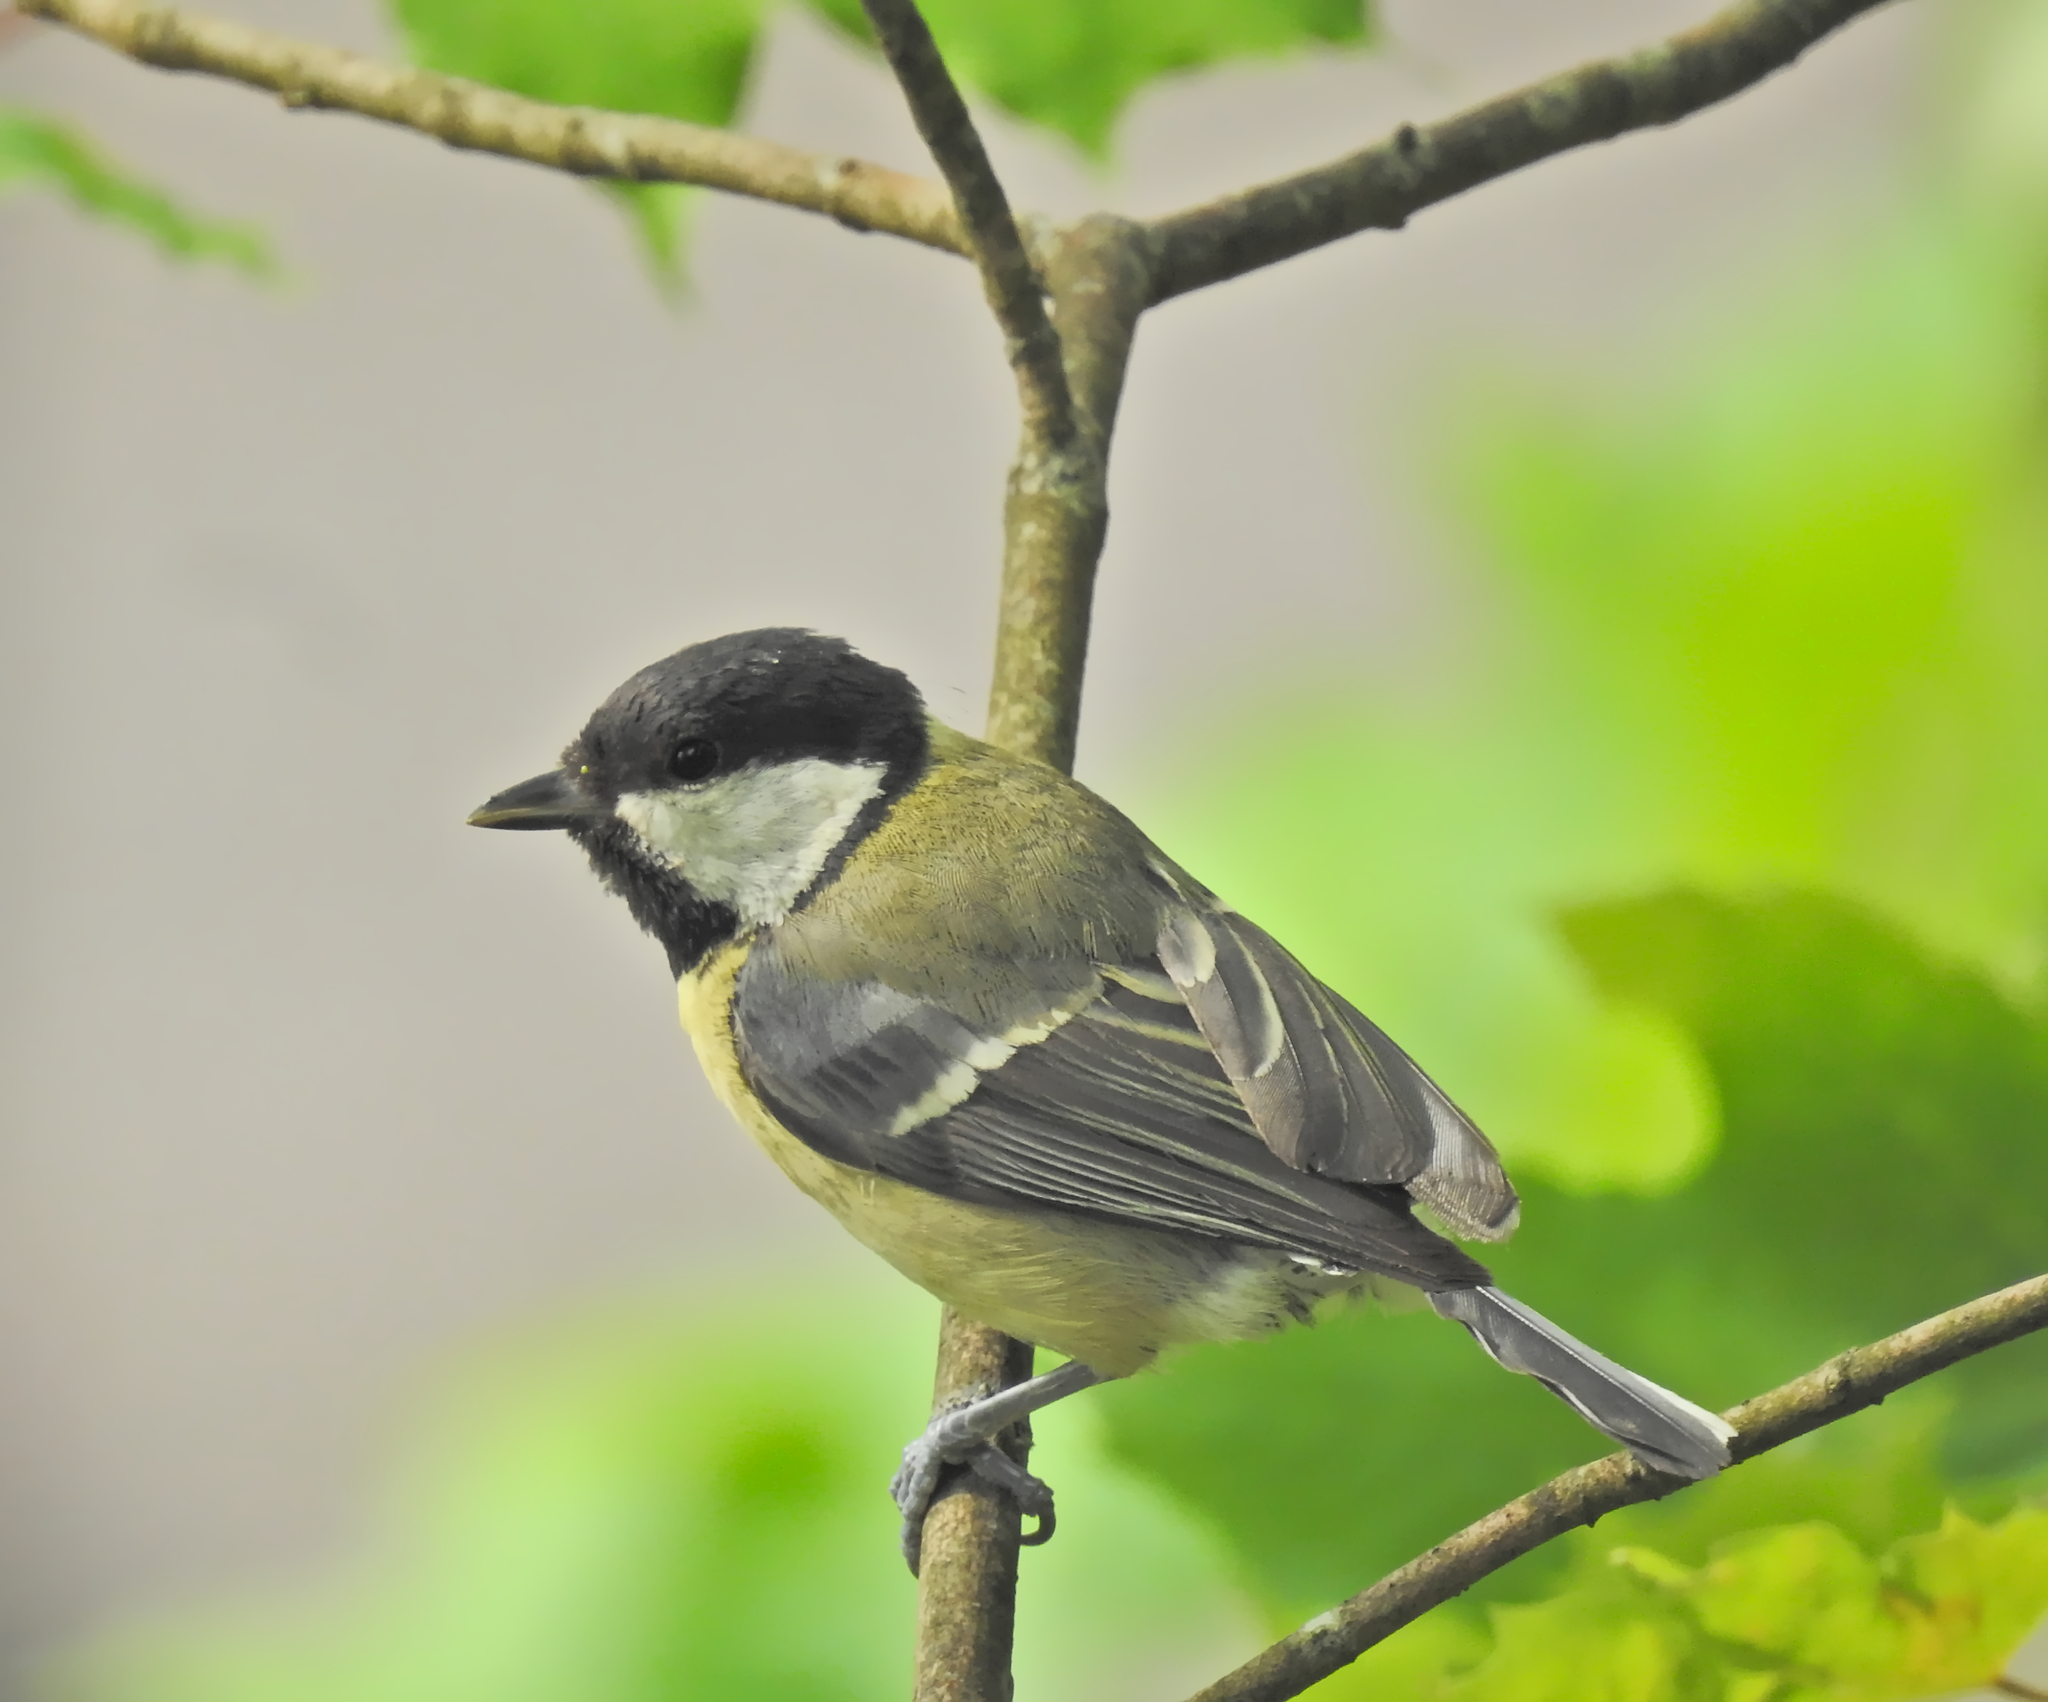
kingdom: Animalia
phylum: Chordata
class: Aves
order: Passeriformes
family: Paridae
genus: Parus
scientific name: Parus major
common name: Great tit
